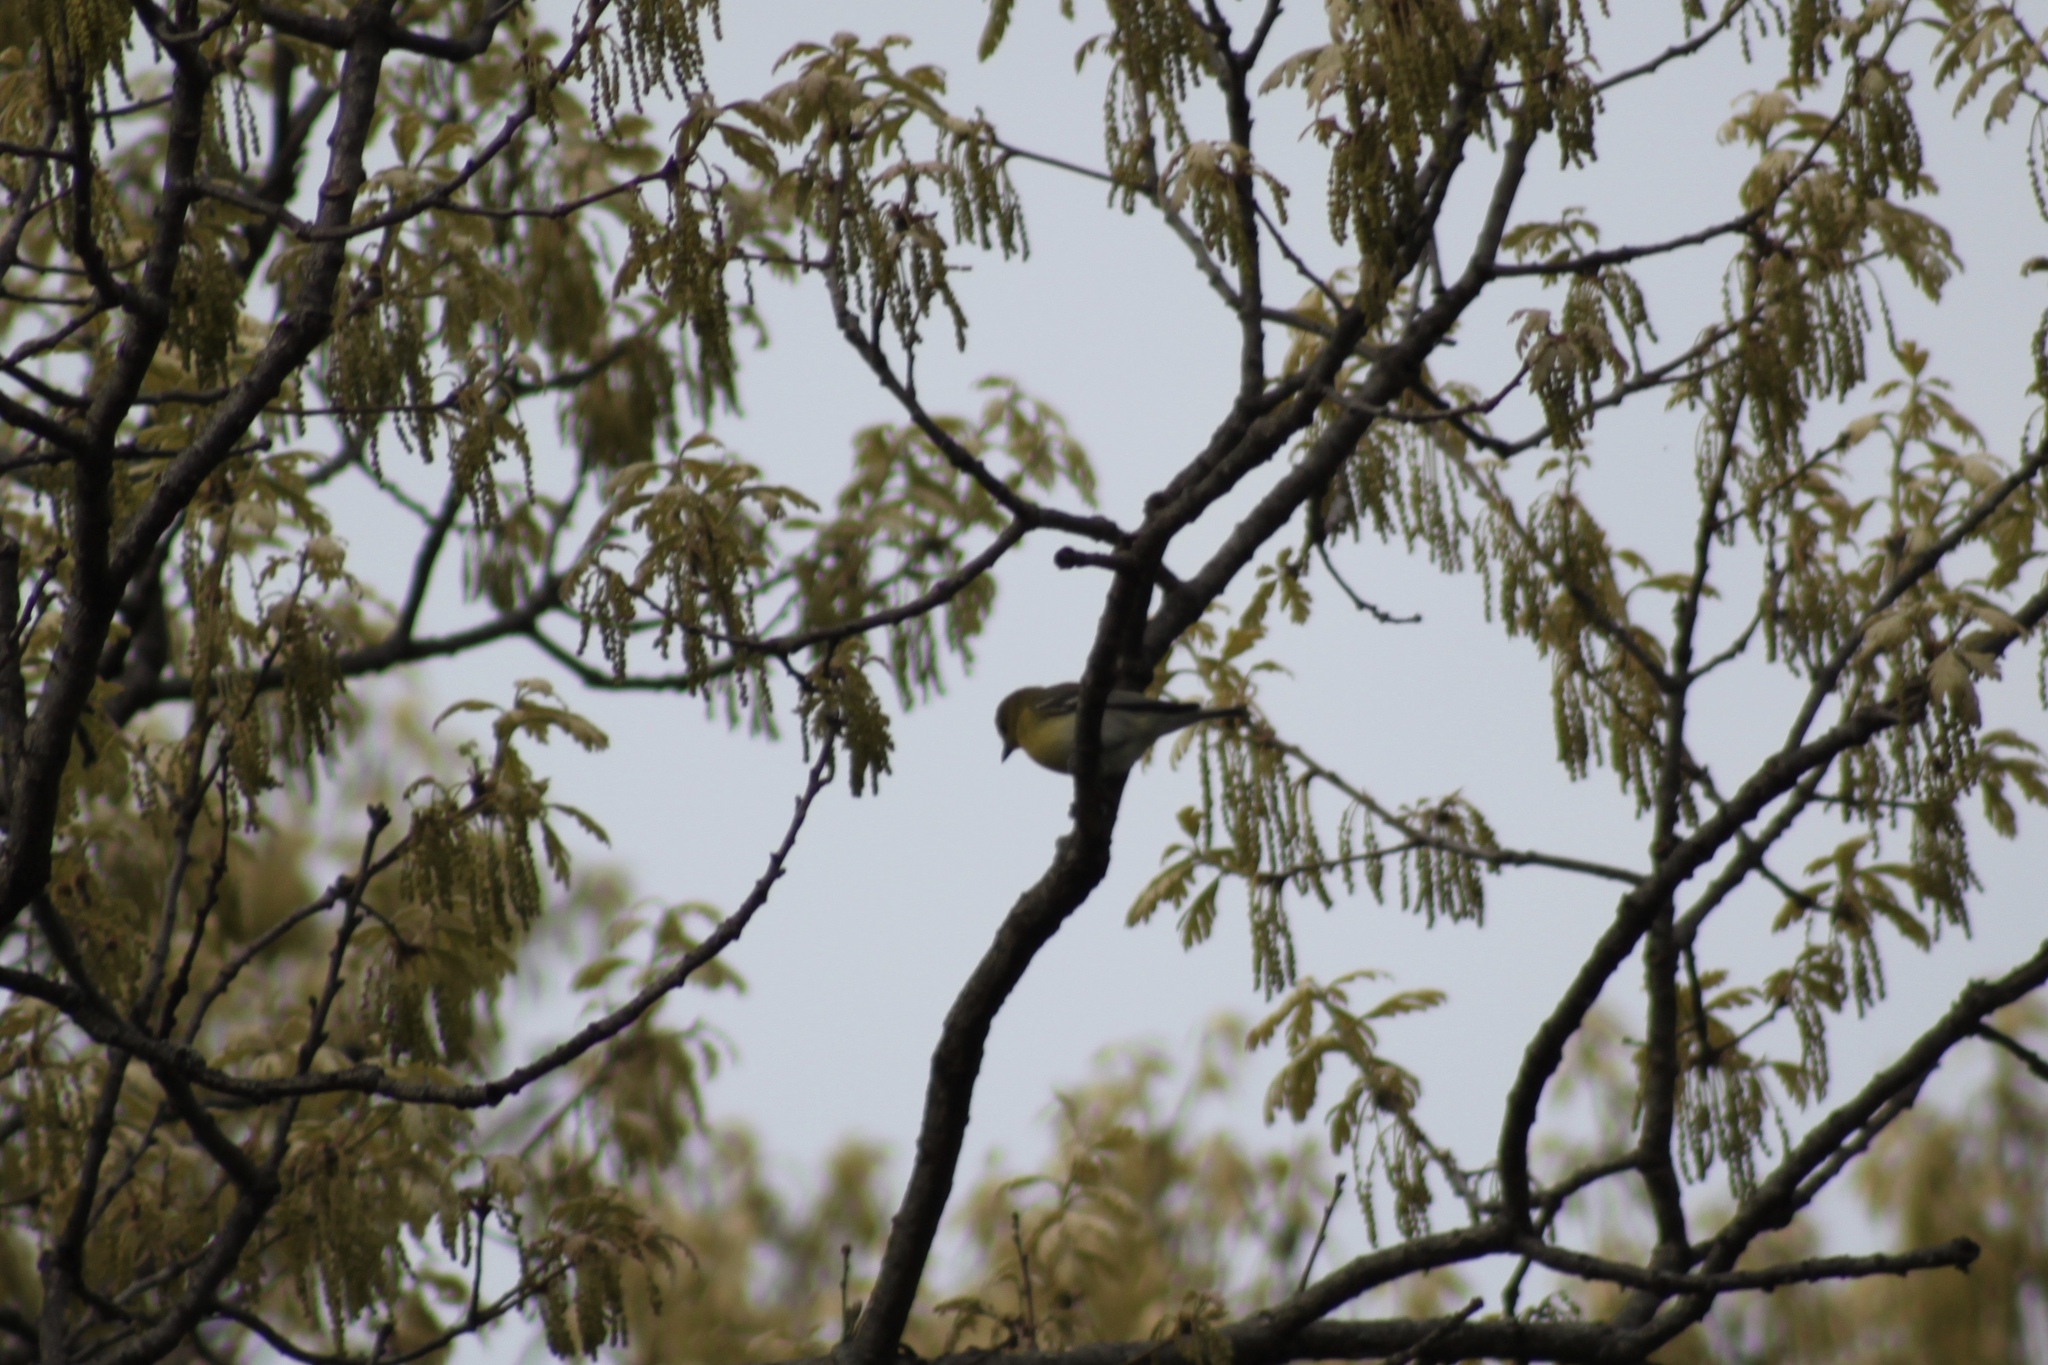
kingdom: Animalia
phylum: Chordata
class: Aves
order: Passeriformes
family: Vireonidae
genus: Vireo
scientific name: Vireo flavifrons
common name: Yellow-throated vireo
